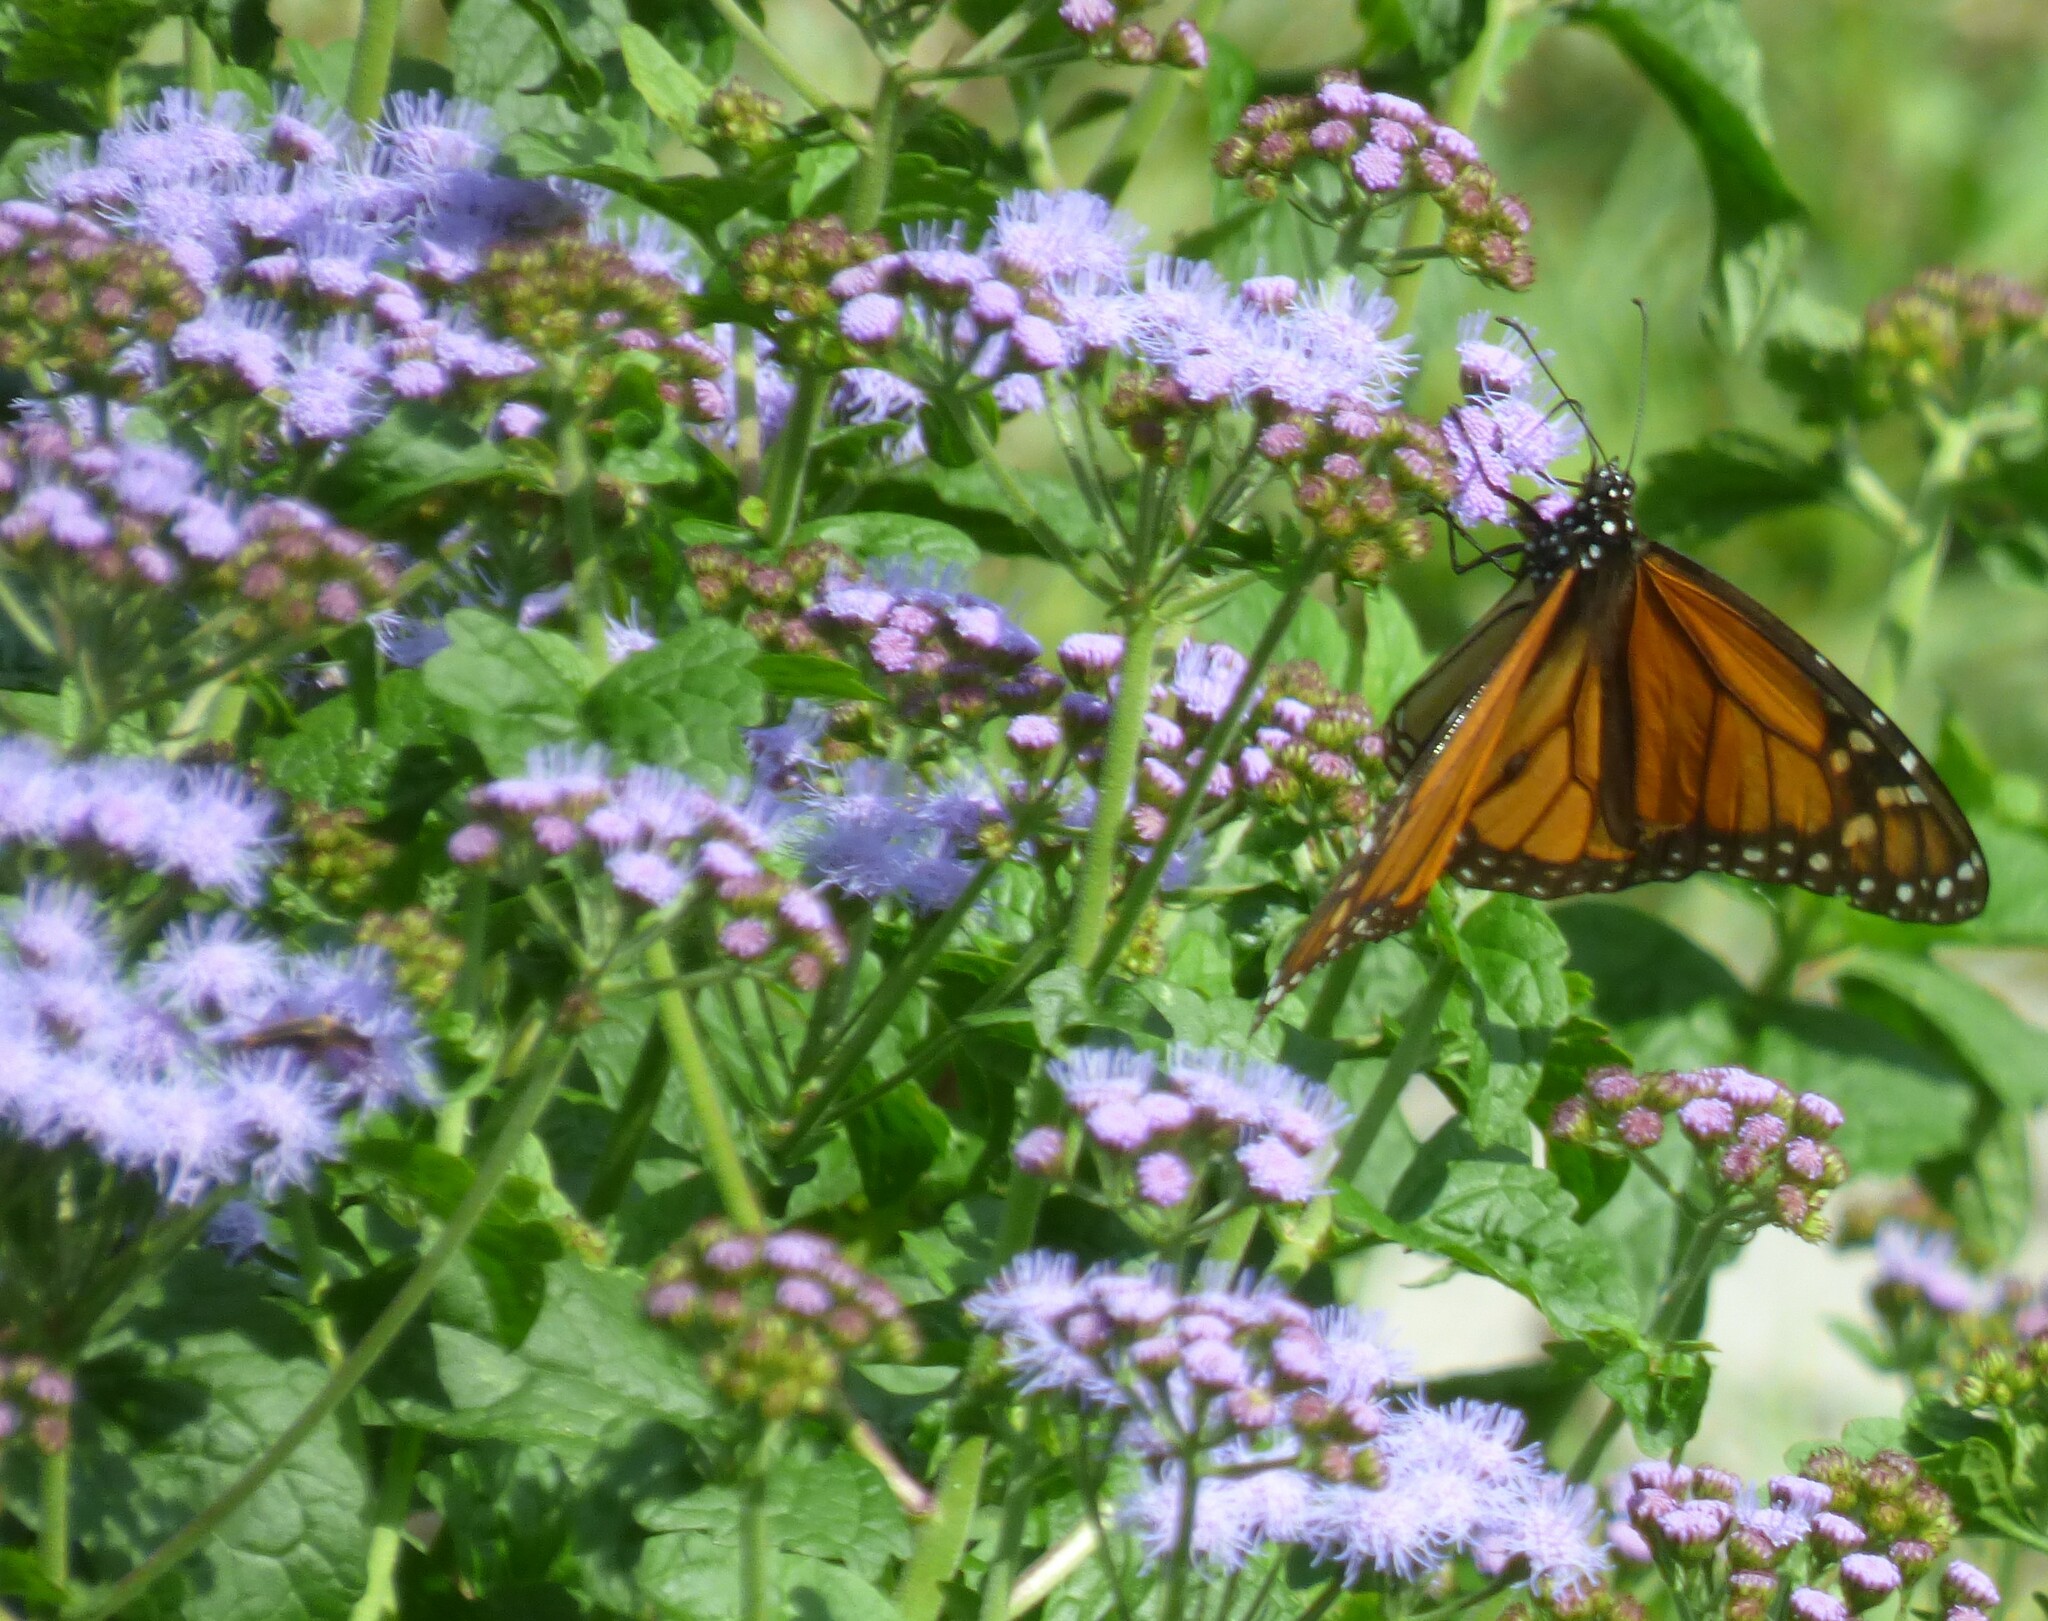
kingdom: Animalia
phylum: Arthropoda
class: Insecta
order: Lepidoptera
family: Nymphalidae
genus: Danaus
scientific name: Danaus plexippus
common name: Monarch
